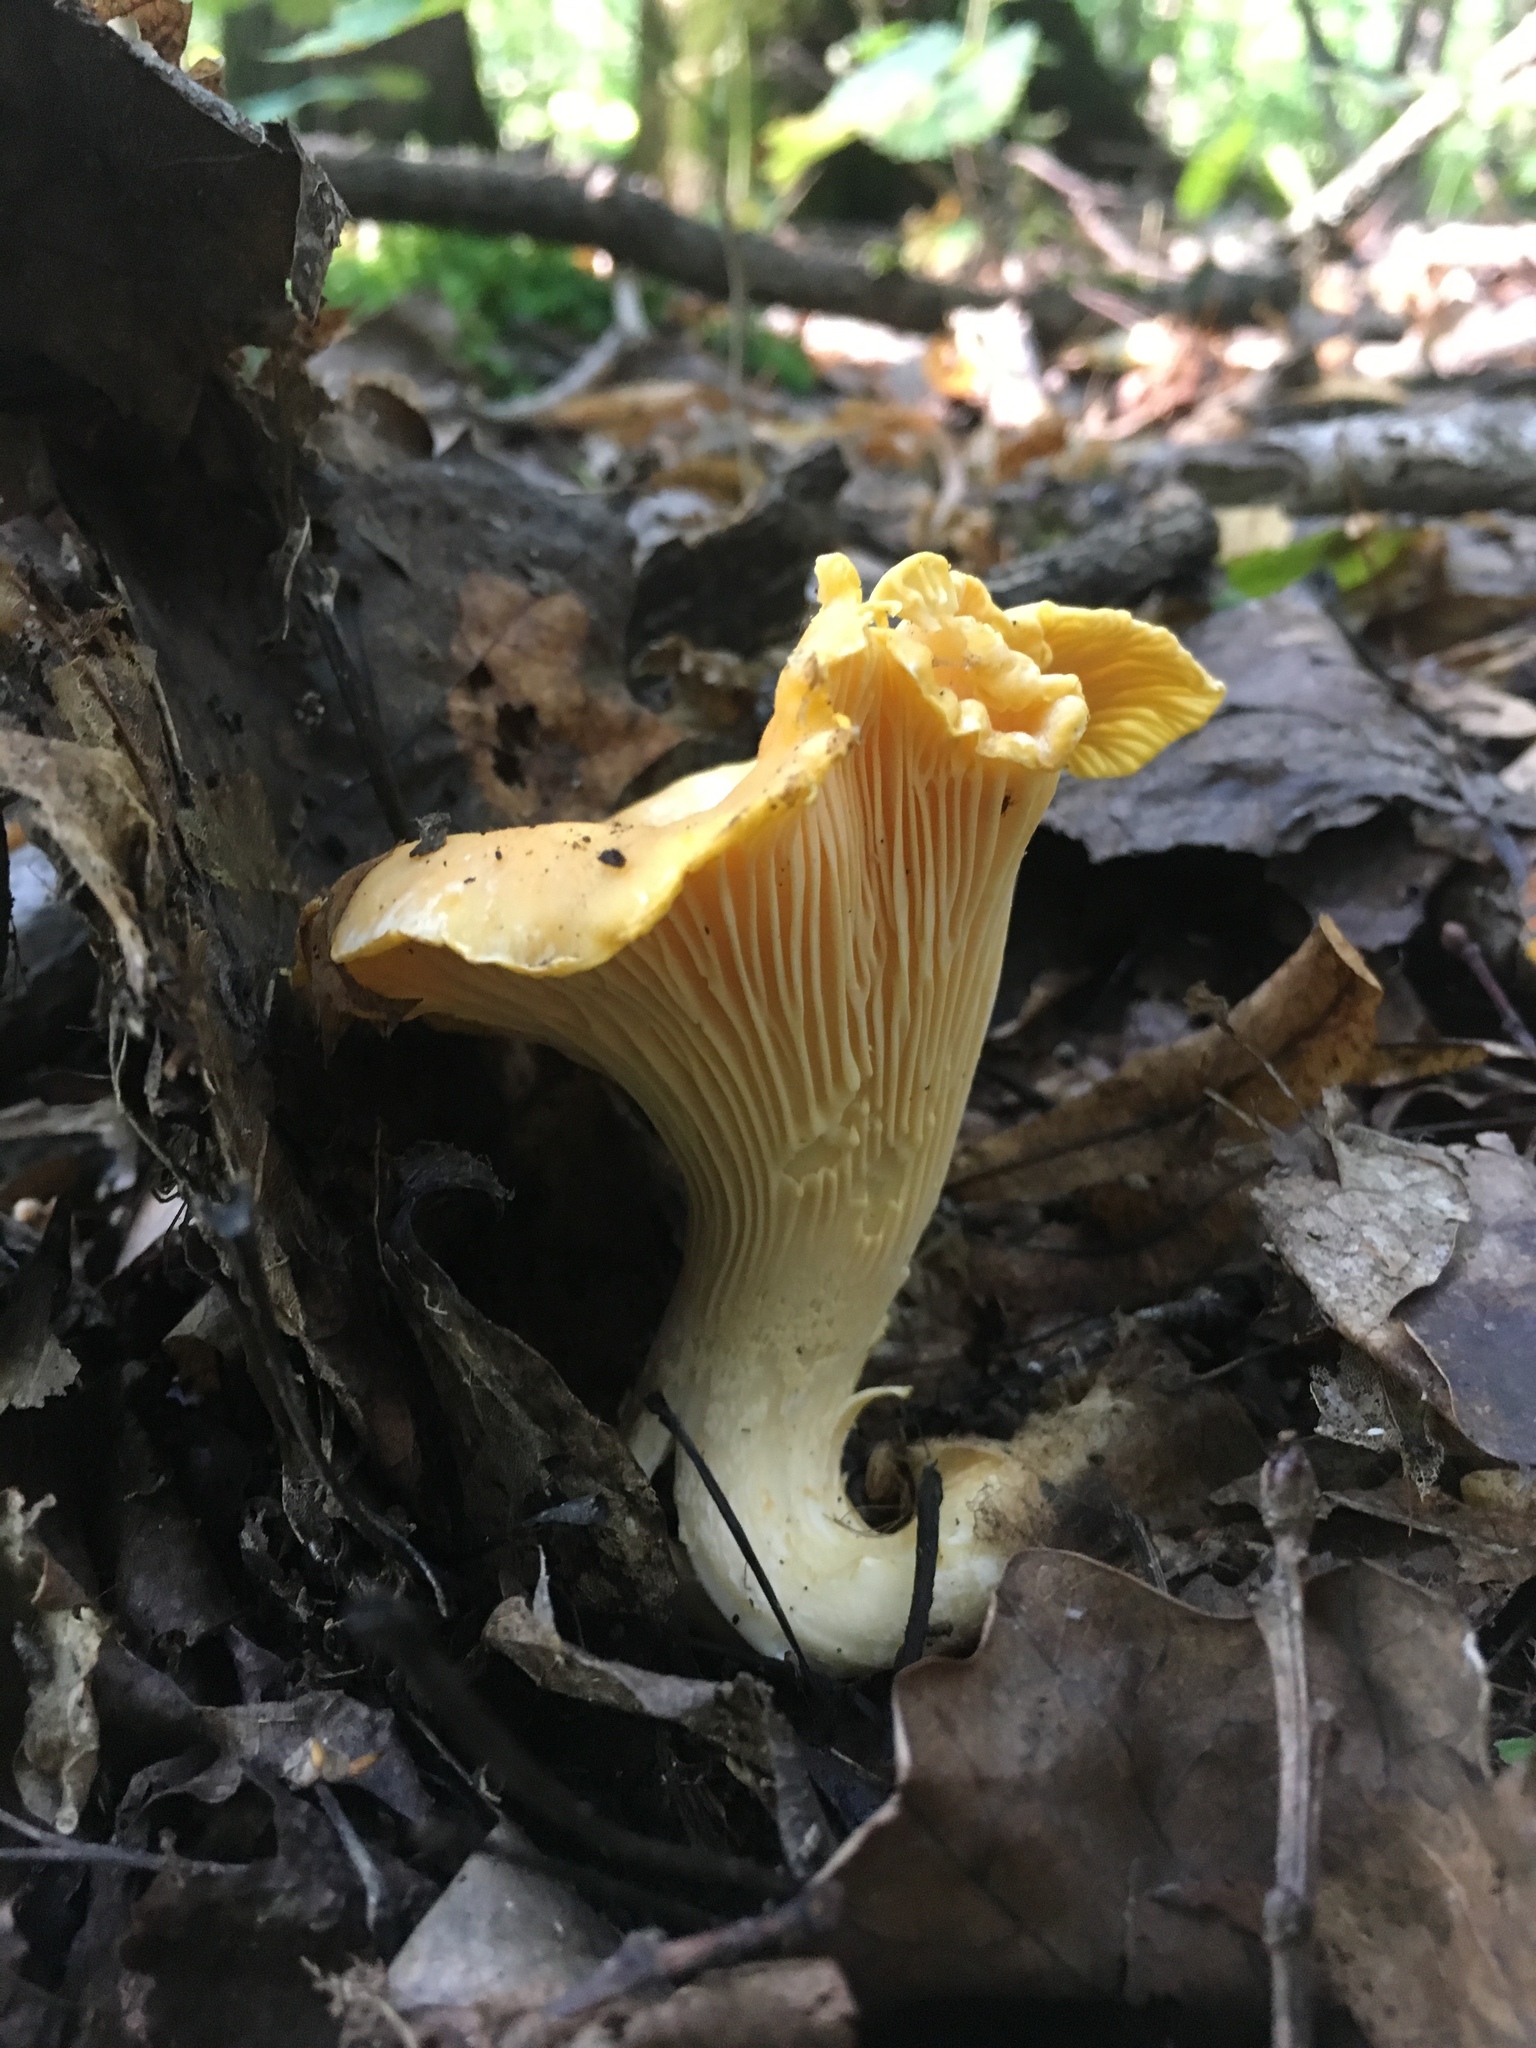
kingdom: Fungi
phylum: Basidiomycota
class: Agaricomycetes
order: Cantharellales
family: Hydnaceae
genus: Cantharellus
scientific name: Cantharellus cibarius
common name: Chanterelle
